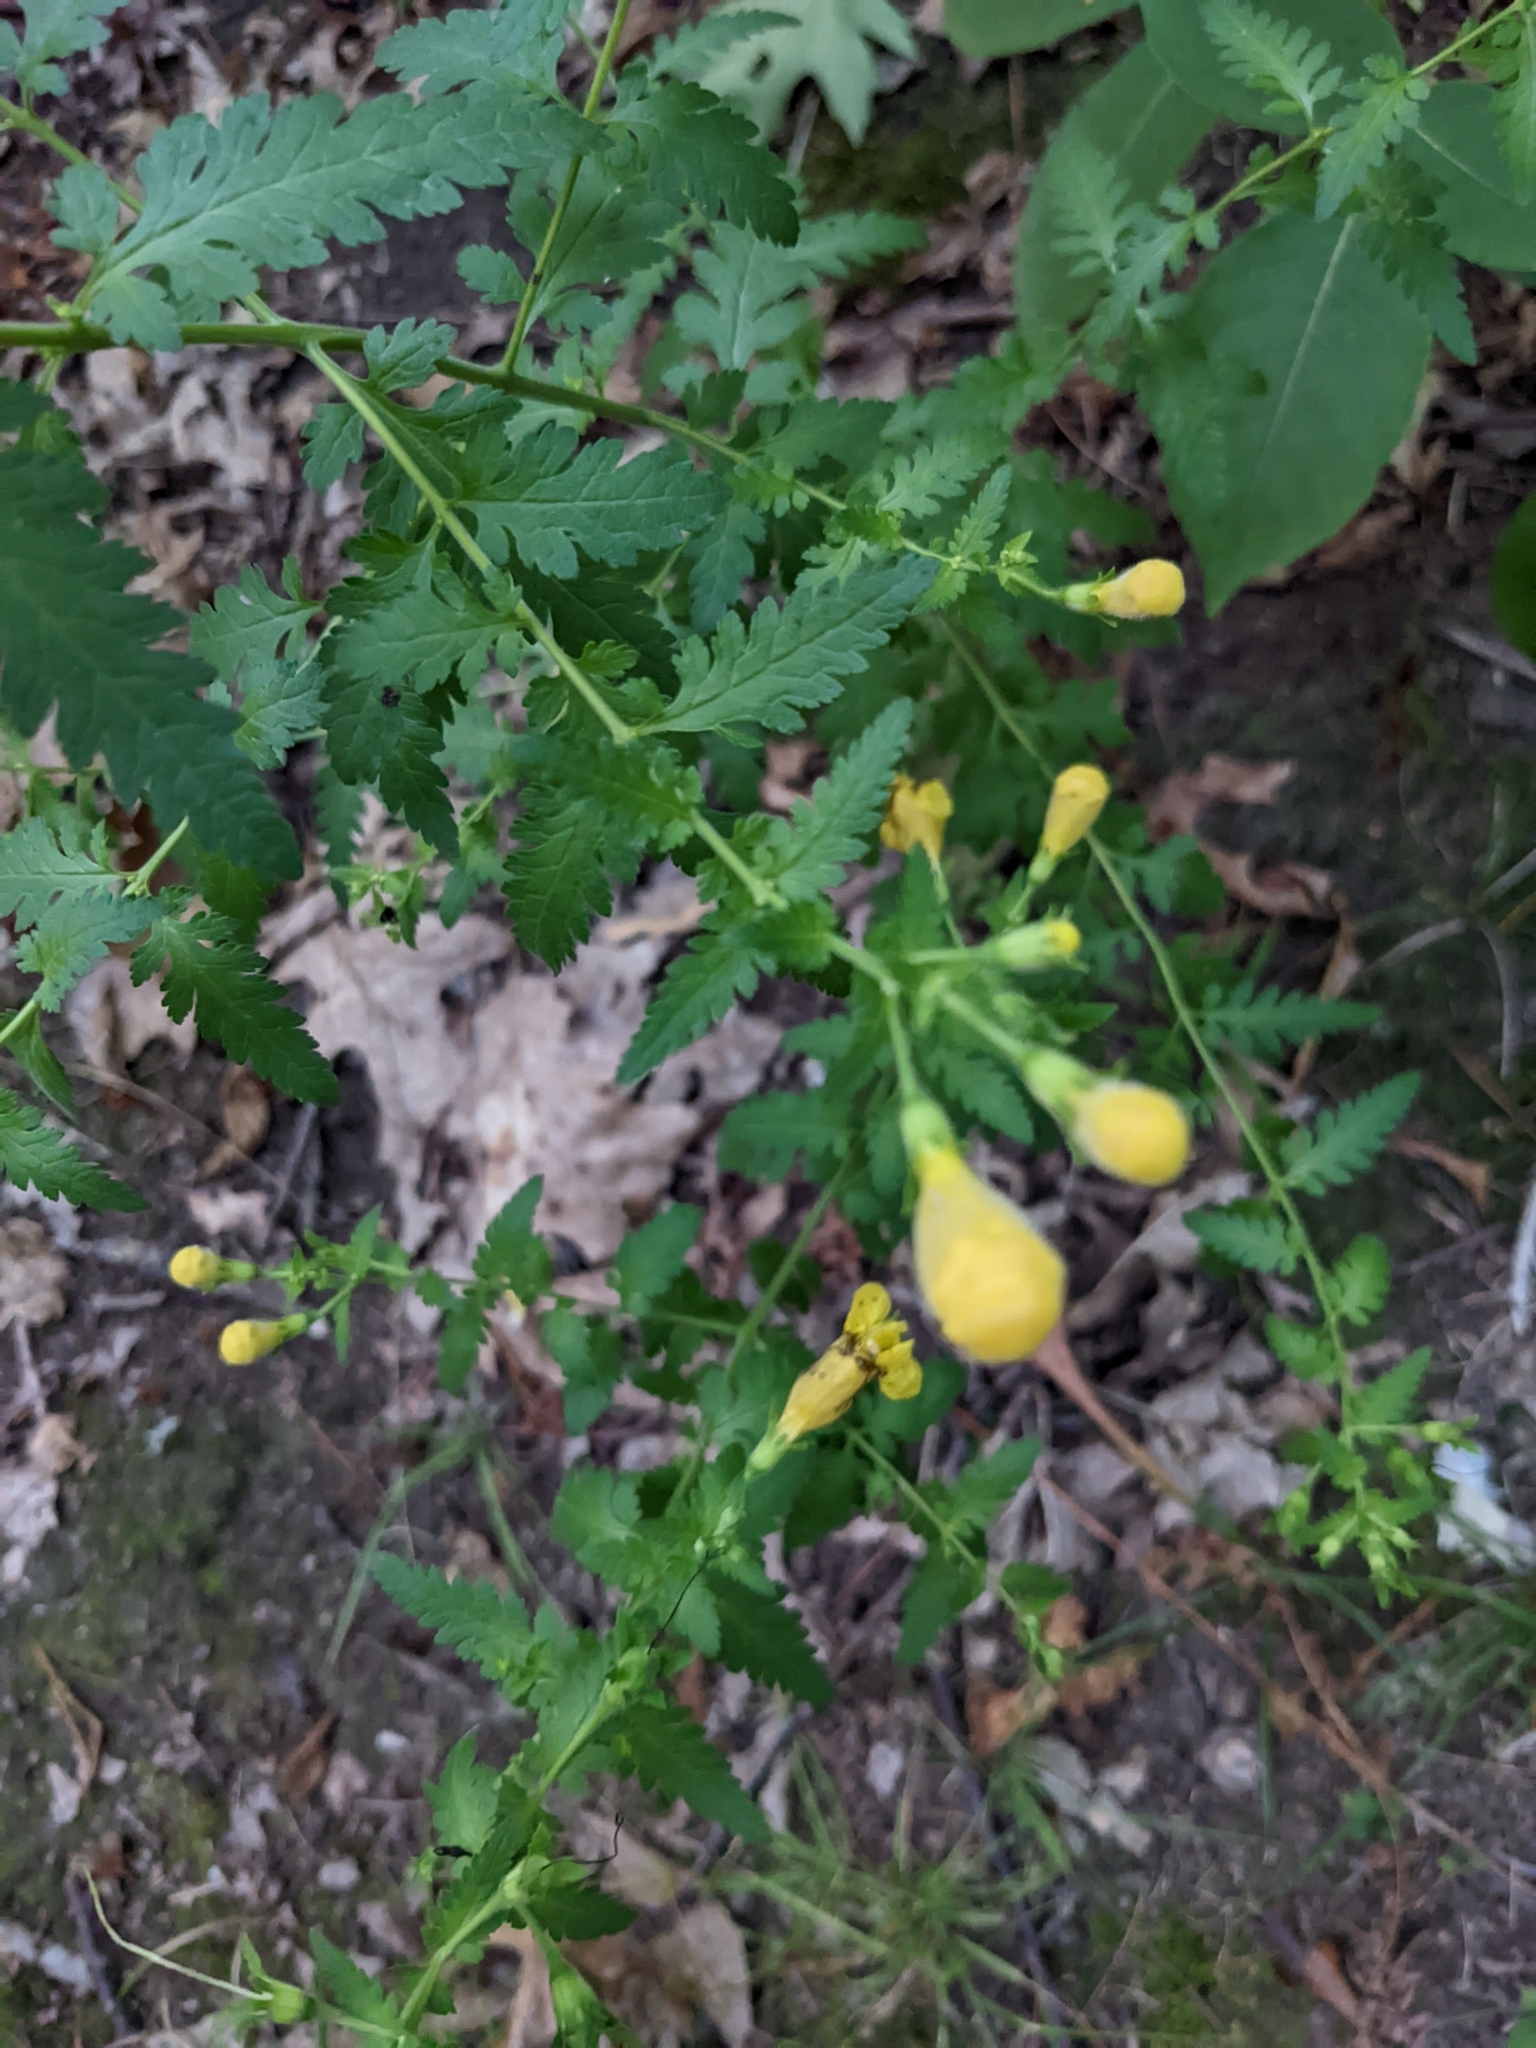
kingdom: Plantae
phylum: Tracheophyta
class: Magnoliopsida
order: Lamiales
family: Orobanchaceae
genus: Aureolaria
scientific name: Aureolaria pedicularia
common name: Annual false foxglove
